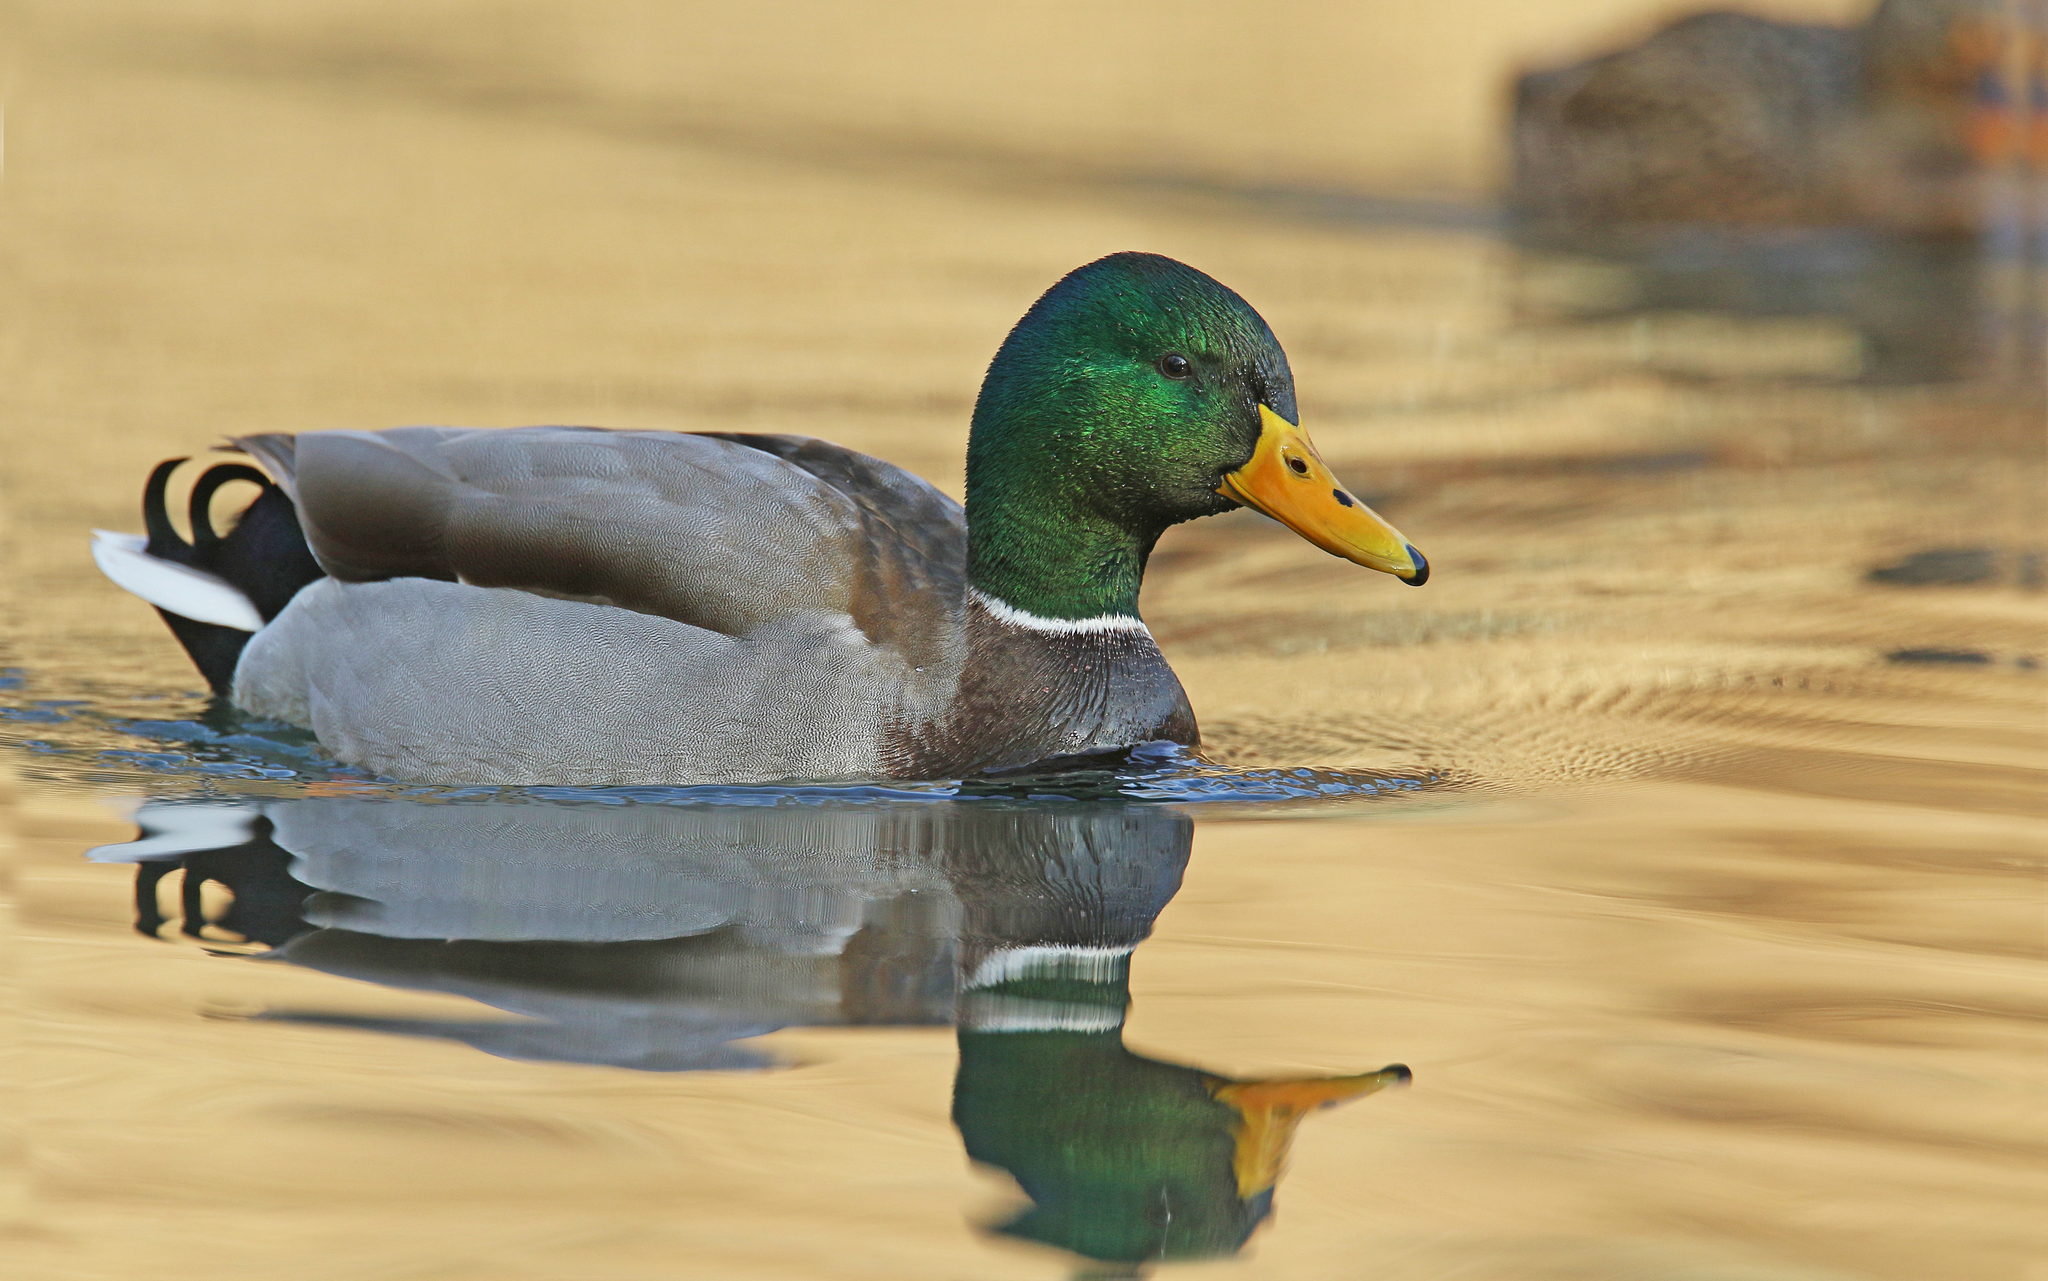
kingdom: Animalia
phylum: Chordata
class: Aves
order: Anseriformes
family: Anatidae
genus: Anas
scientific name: Anas platyrhynchos
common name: Mallard
